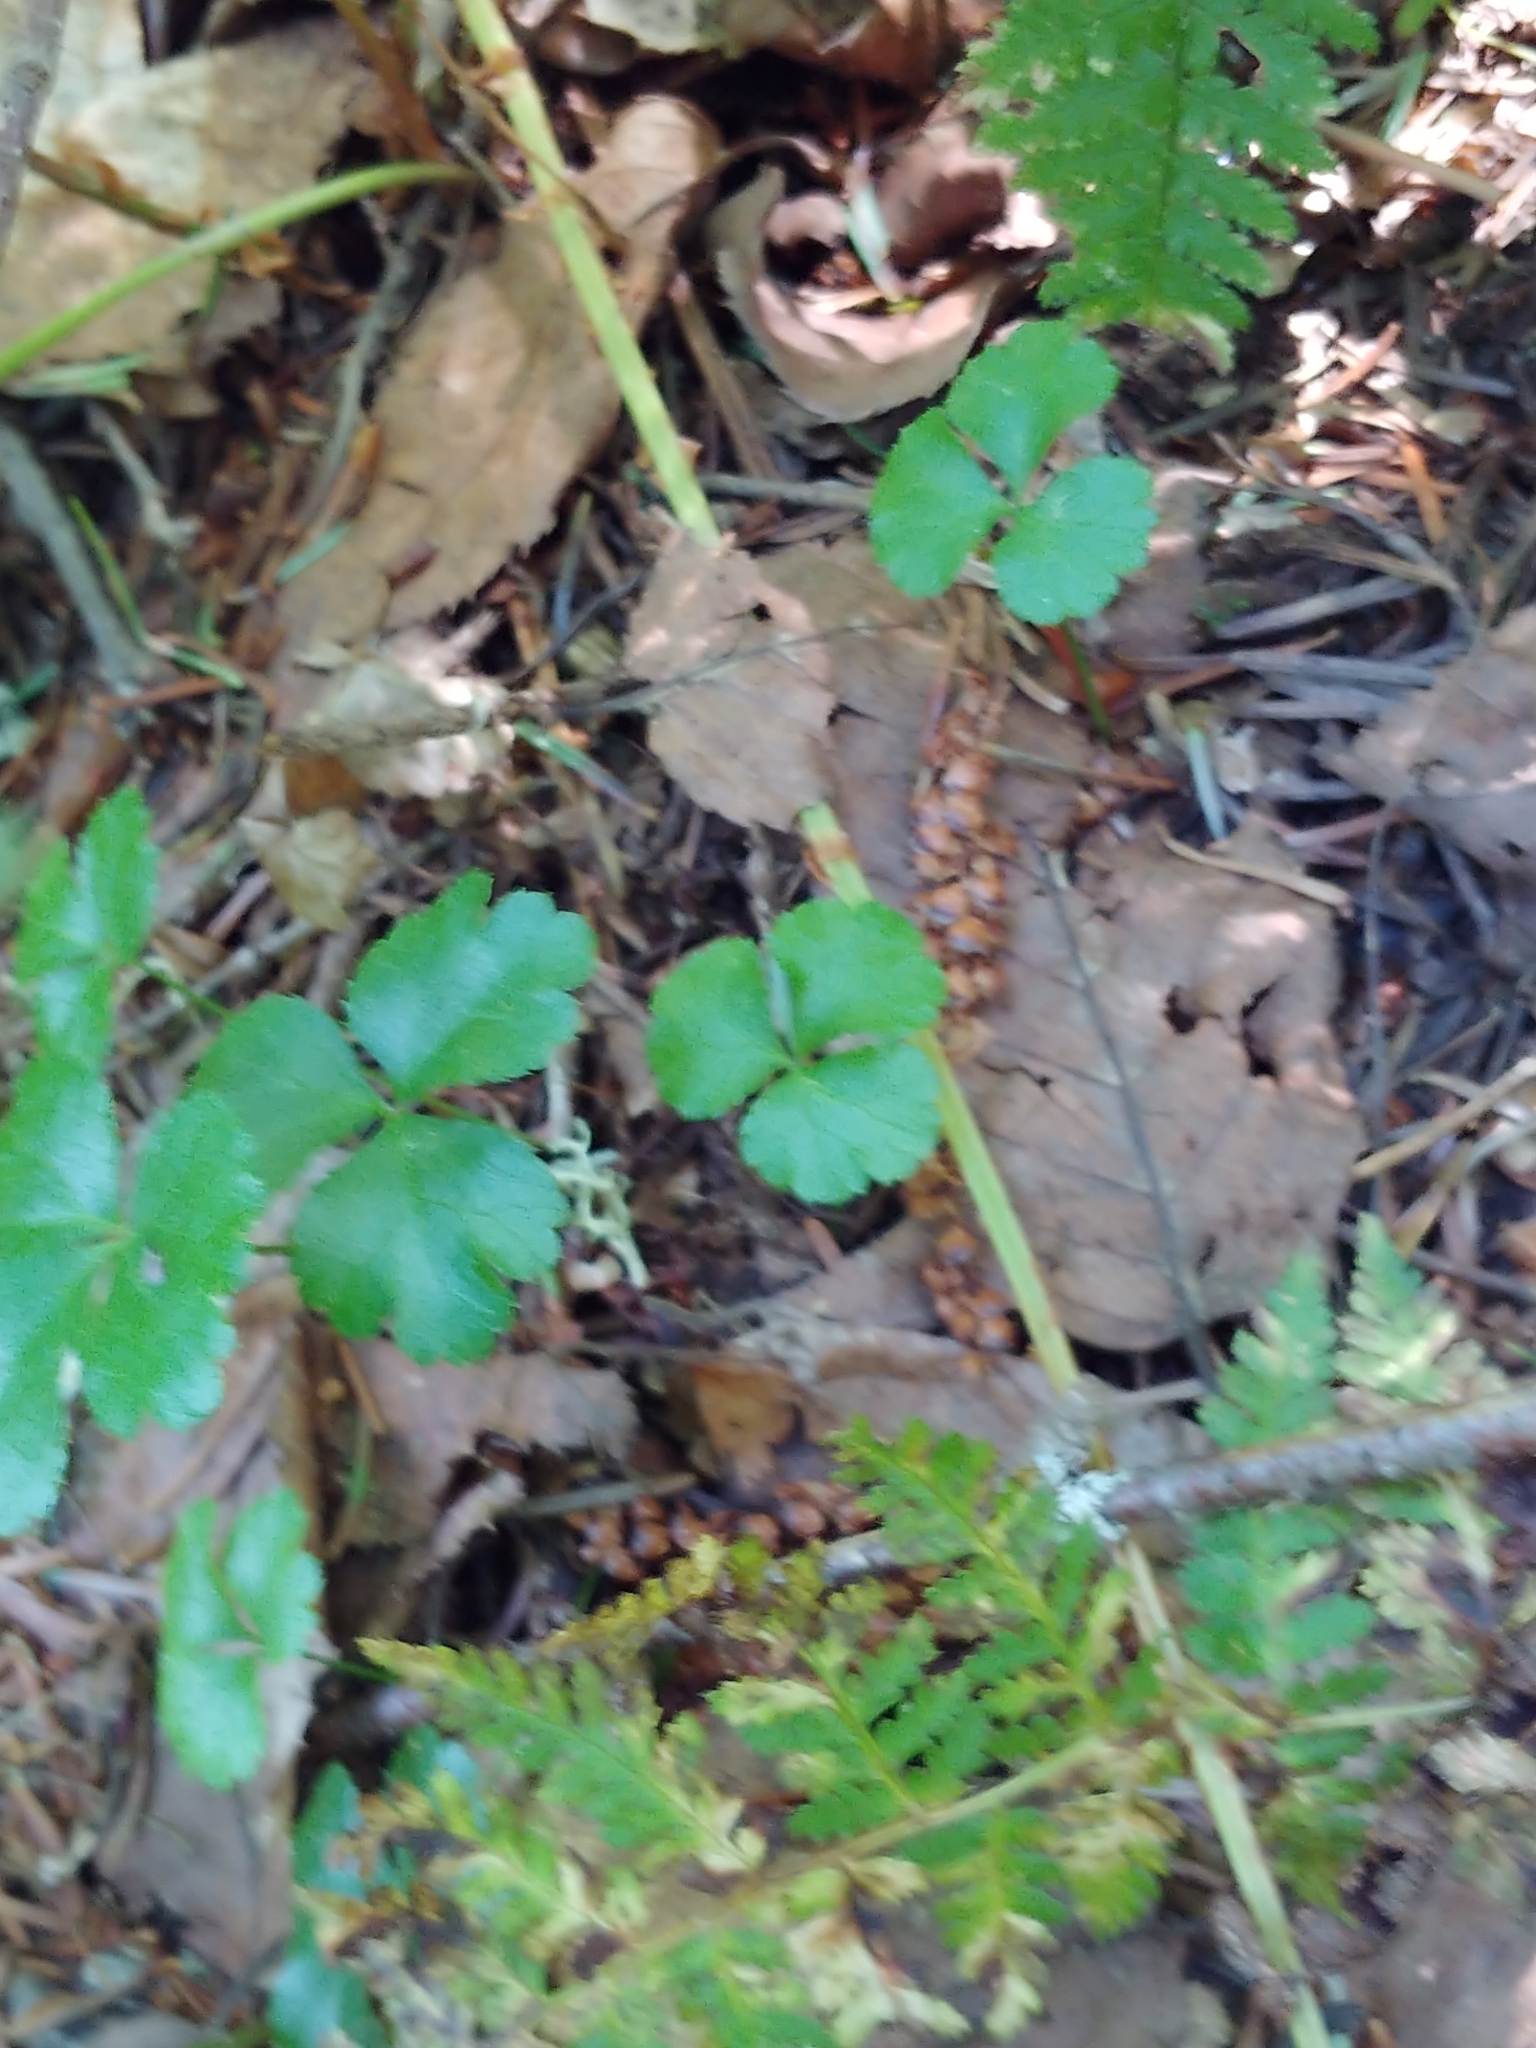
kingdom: Plantae
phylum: Tracheophyta
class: Magnoliopsida
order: Ranunculales
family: Ranunculaceae
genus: Coptis
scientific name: Coptis trifolia
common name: Canker-root
